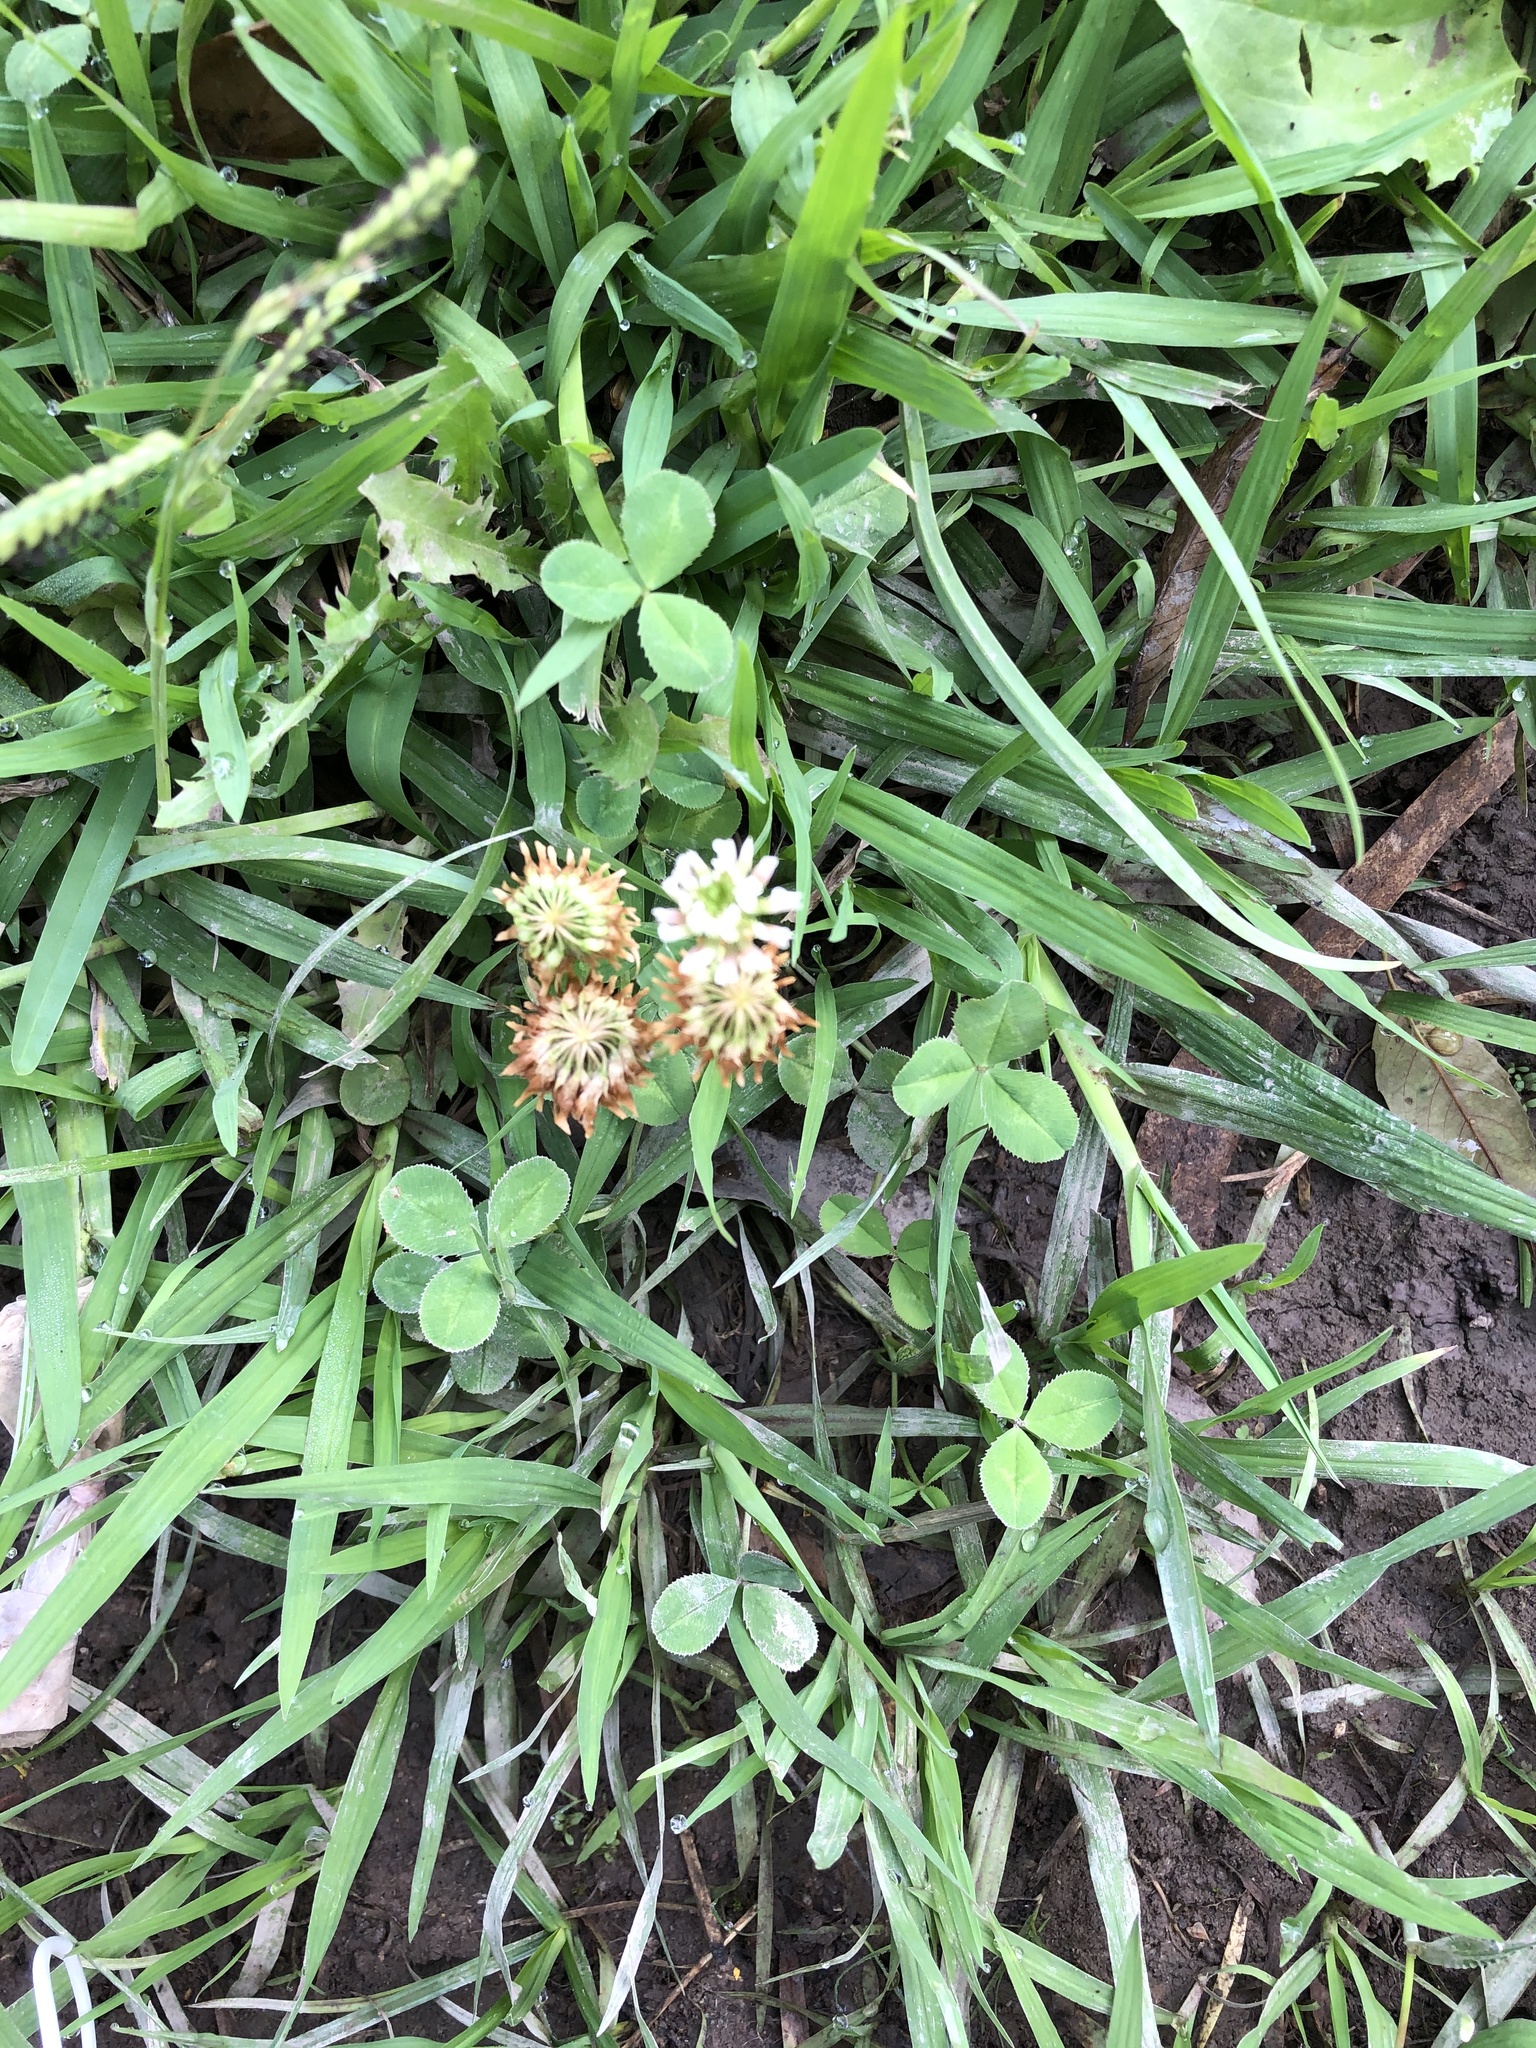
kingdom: Plantae
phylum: Tracheophyta
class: Magnoliopsida
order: Fabales
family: Fabaceae
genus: Trifolium
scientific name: Trifolium repens
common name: White clover
